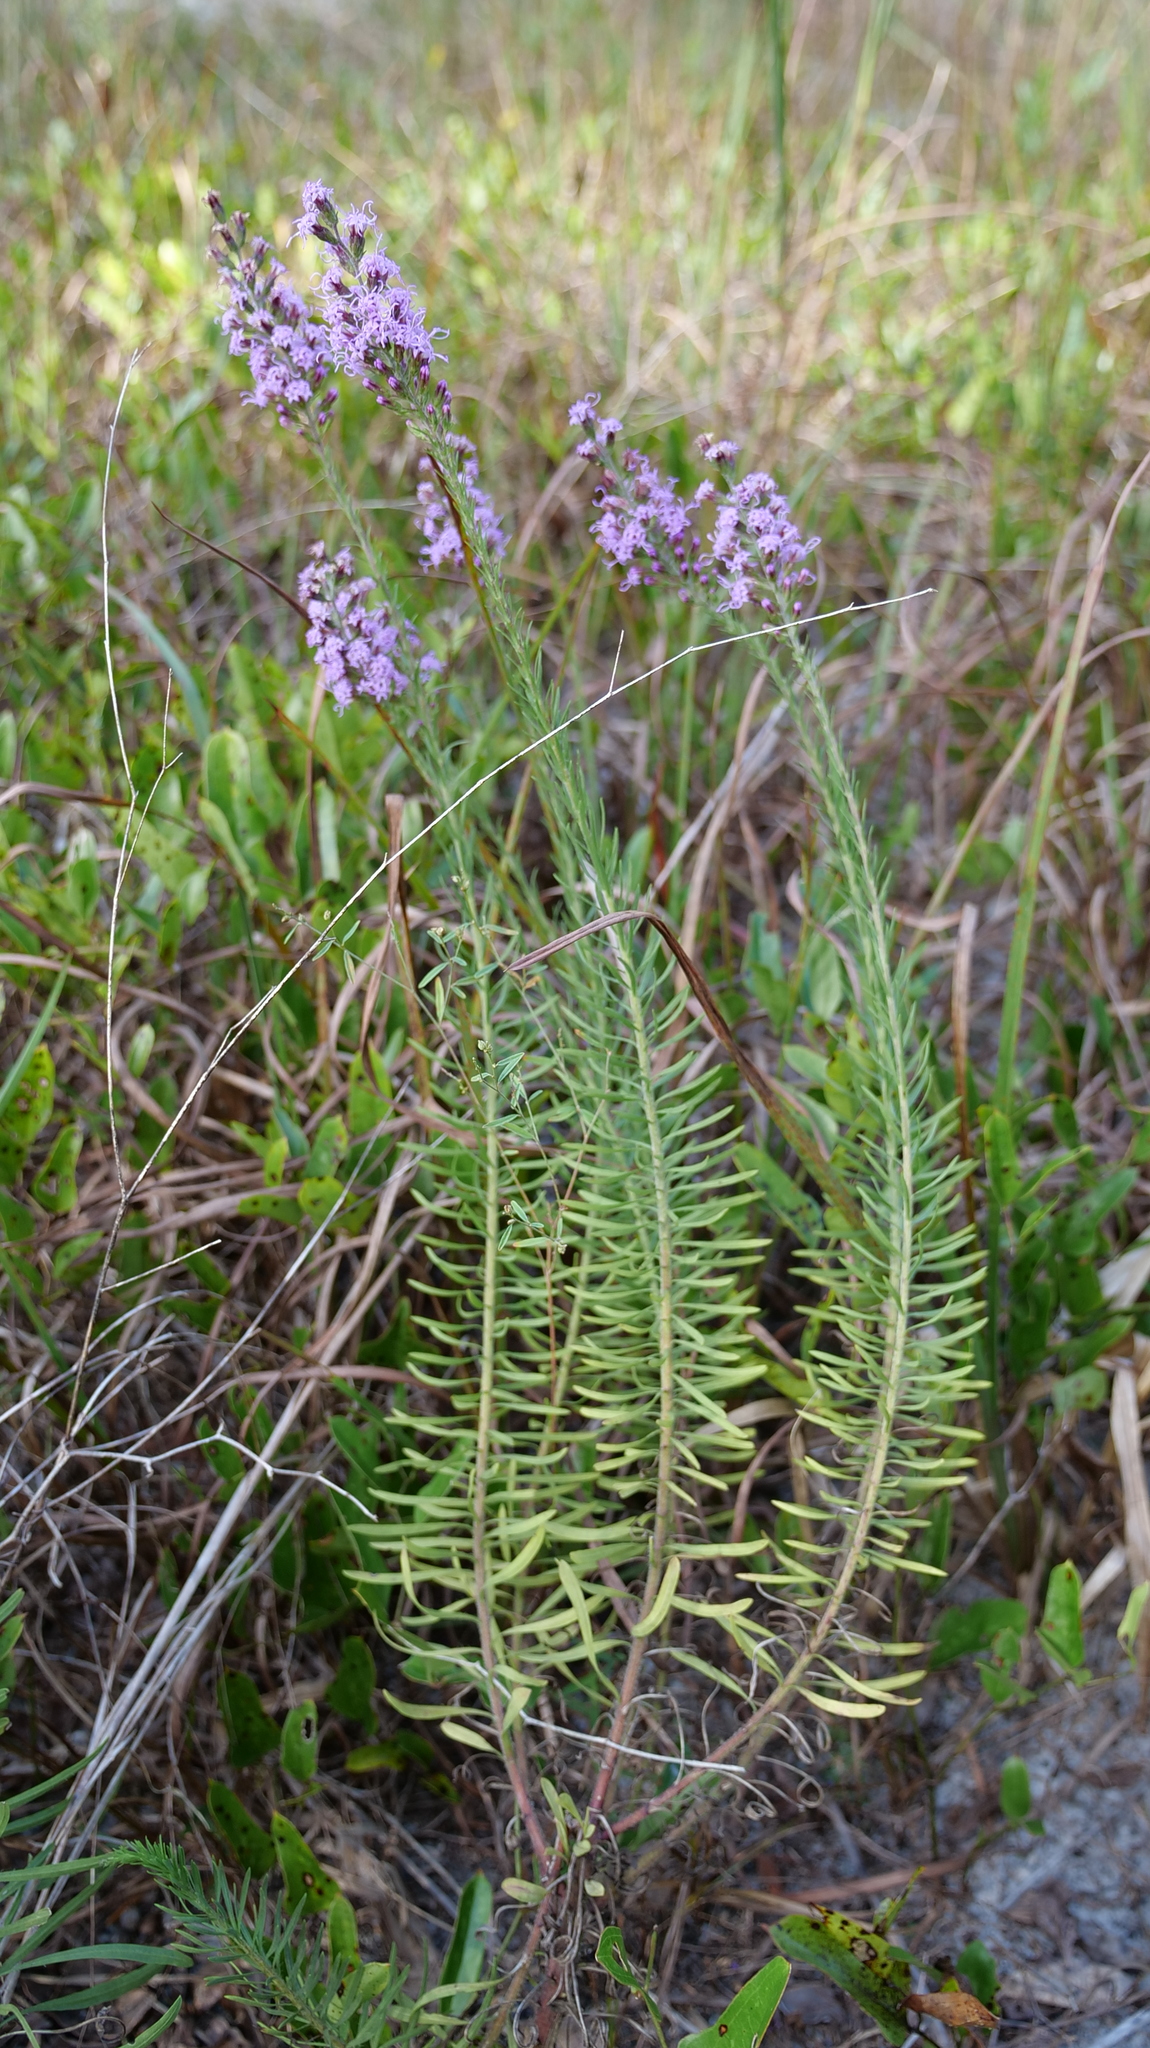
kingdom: Plantae
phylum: Tracheophyta
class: Magnoliopsida
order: Asterales
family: Asteraceae
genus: Liatris
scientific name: Liatris gracilis
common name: Slender gayfeather
